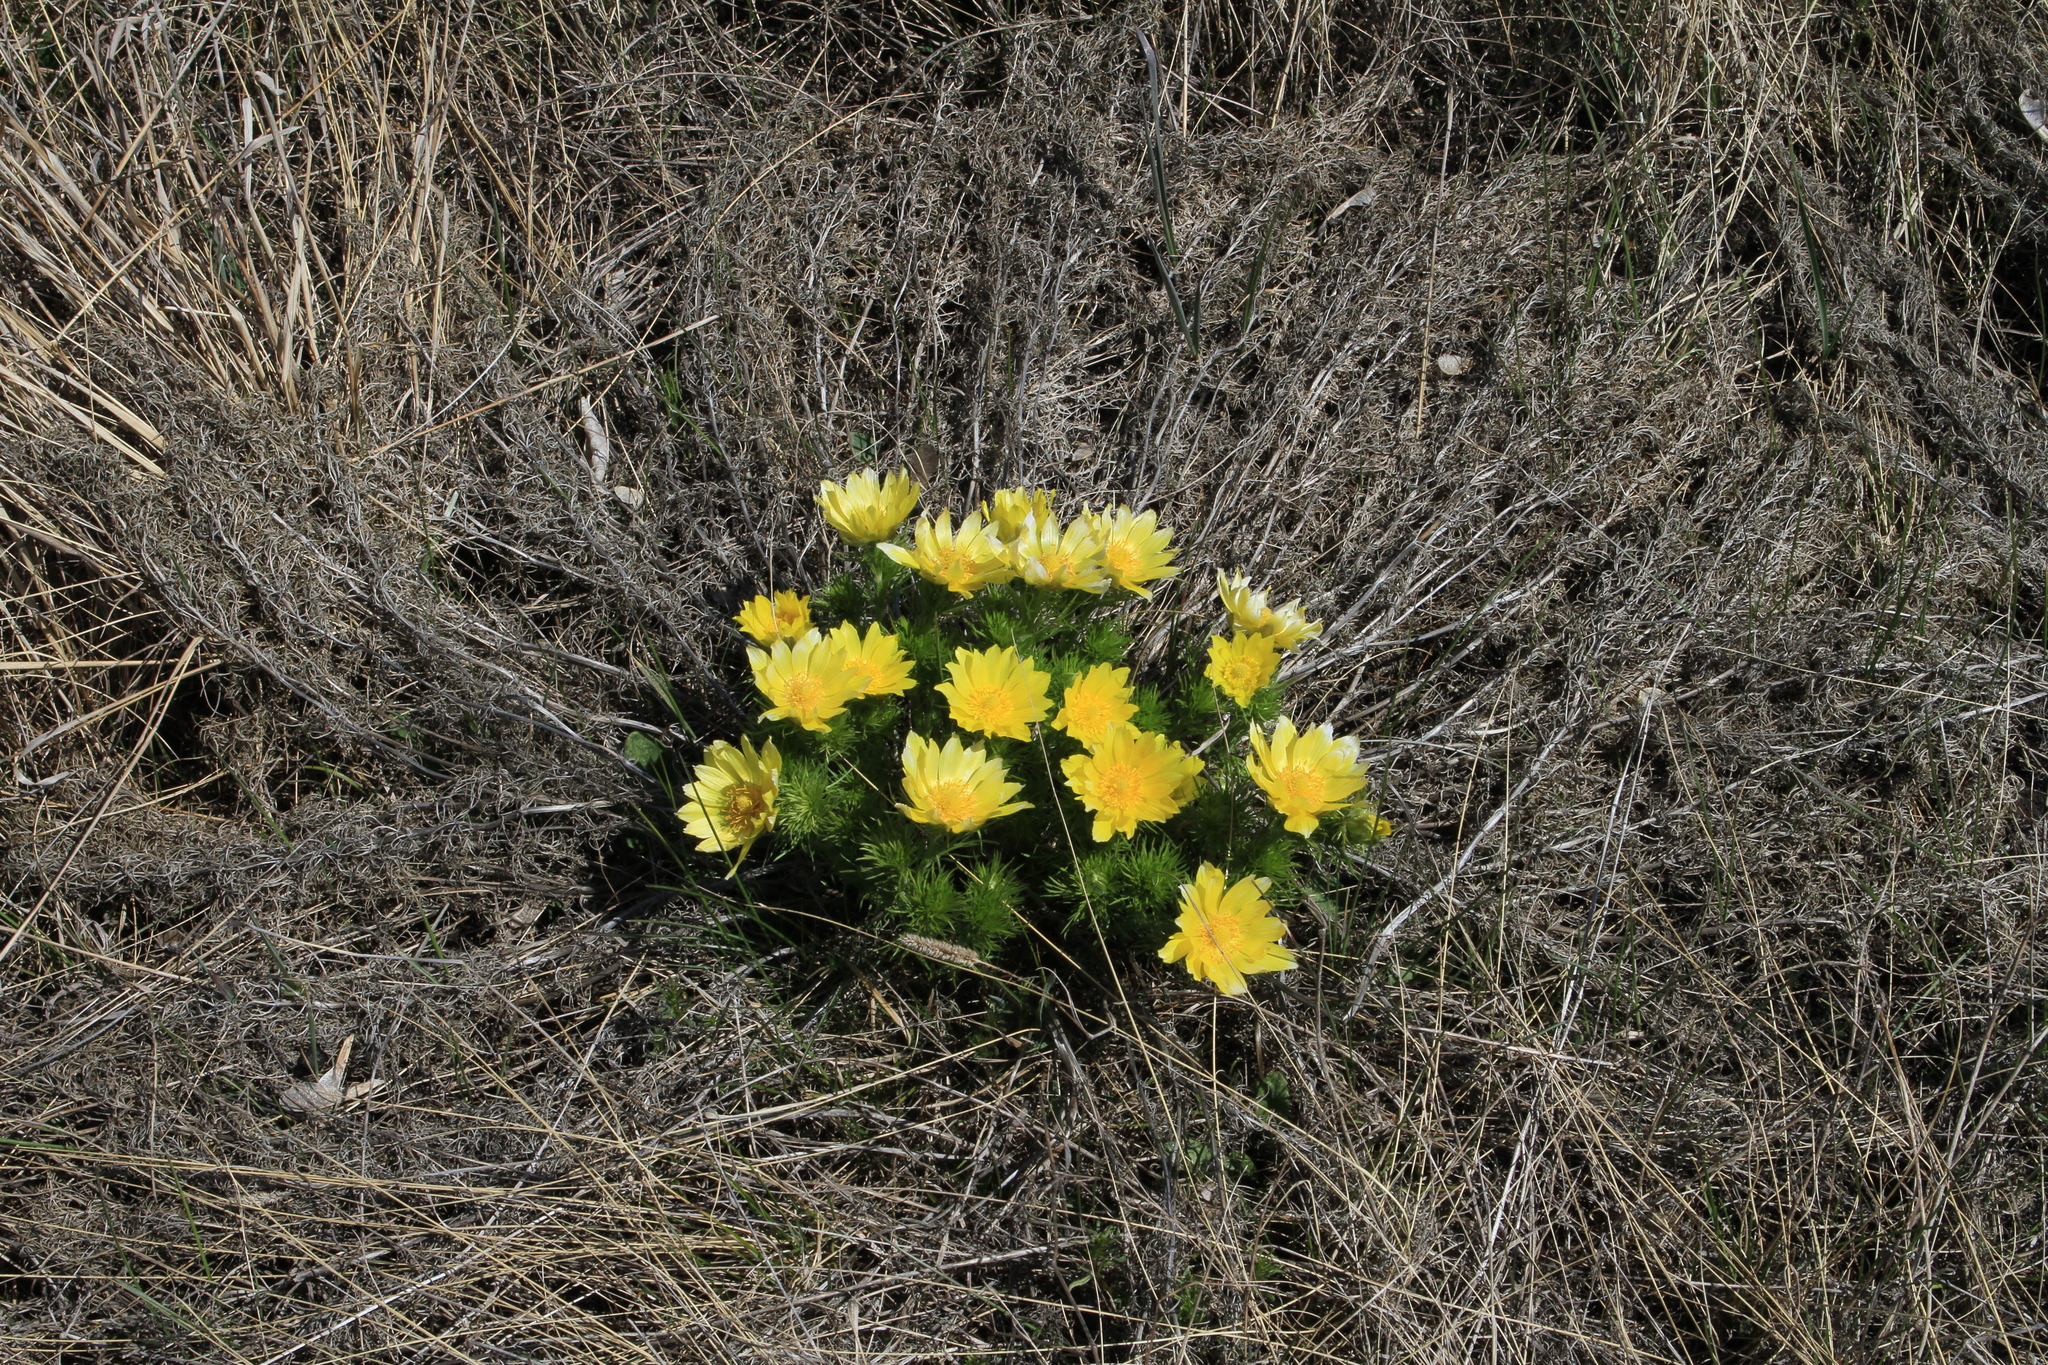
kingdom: Plantae
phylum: Tracheophyta
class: Magnoliopsida
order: Ranunculales
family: Ranunculaceae
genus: Adonis
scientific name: Adonis vernalis
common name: Yellow pheasants-eye
